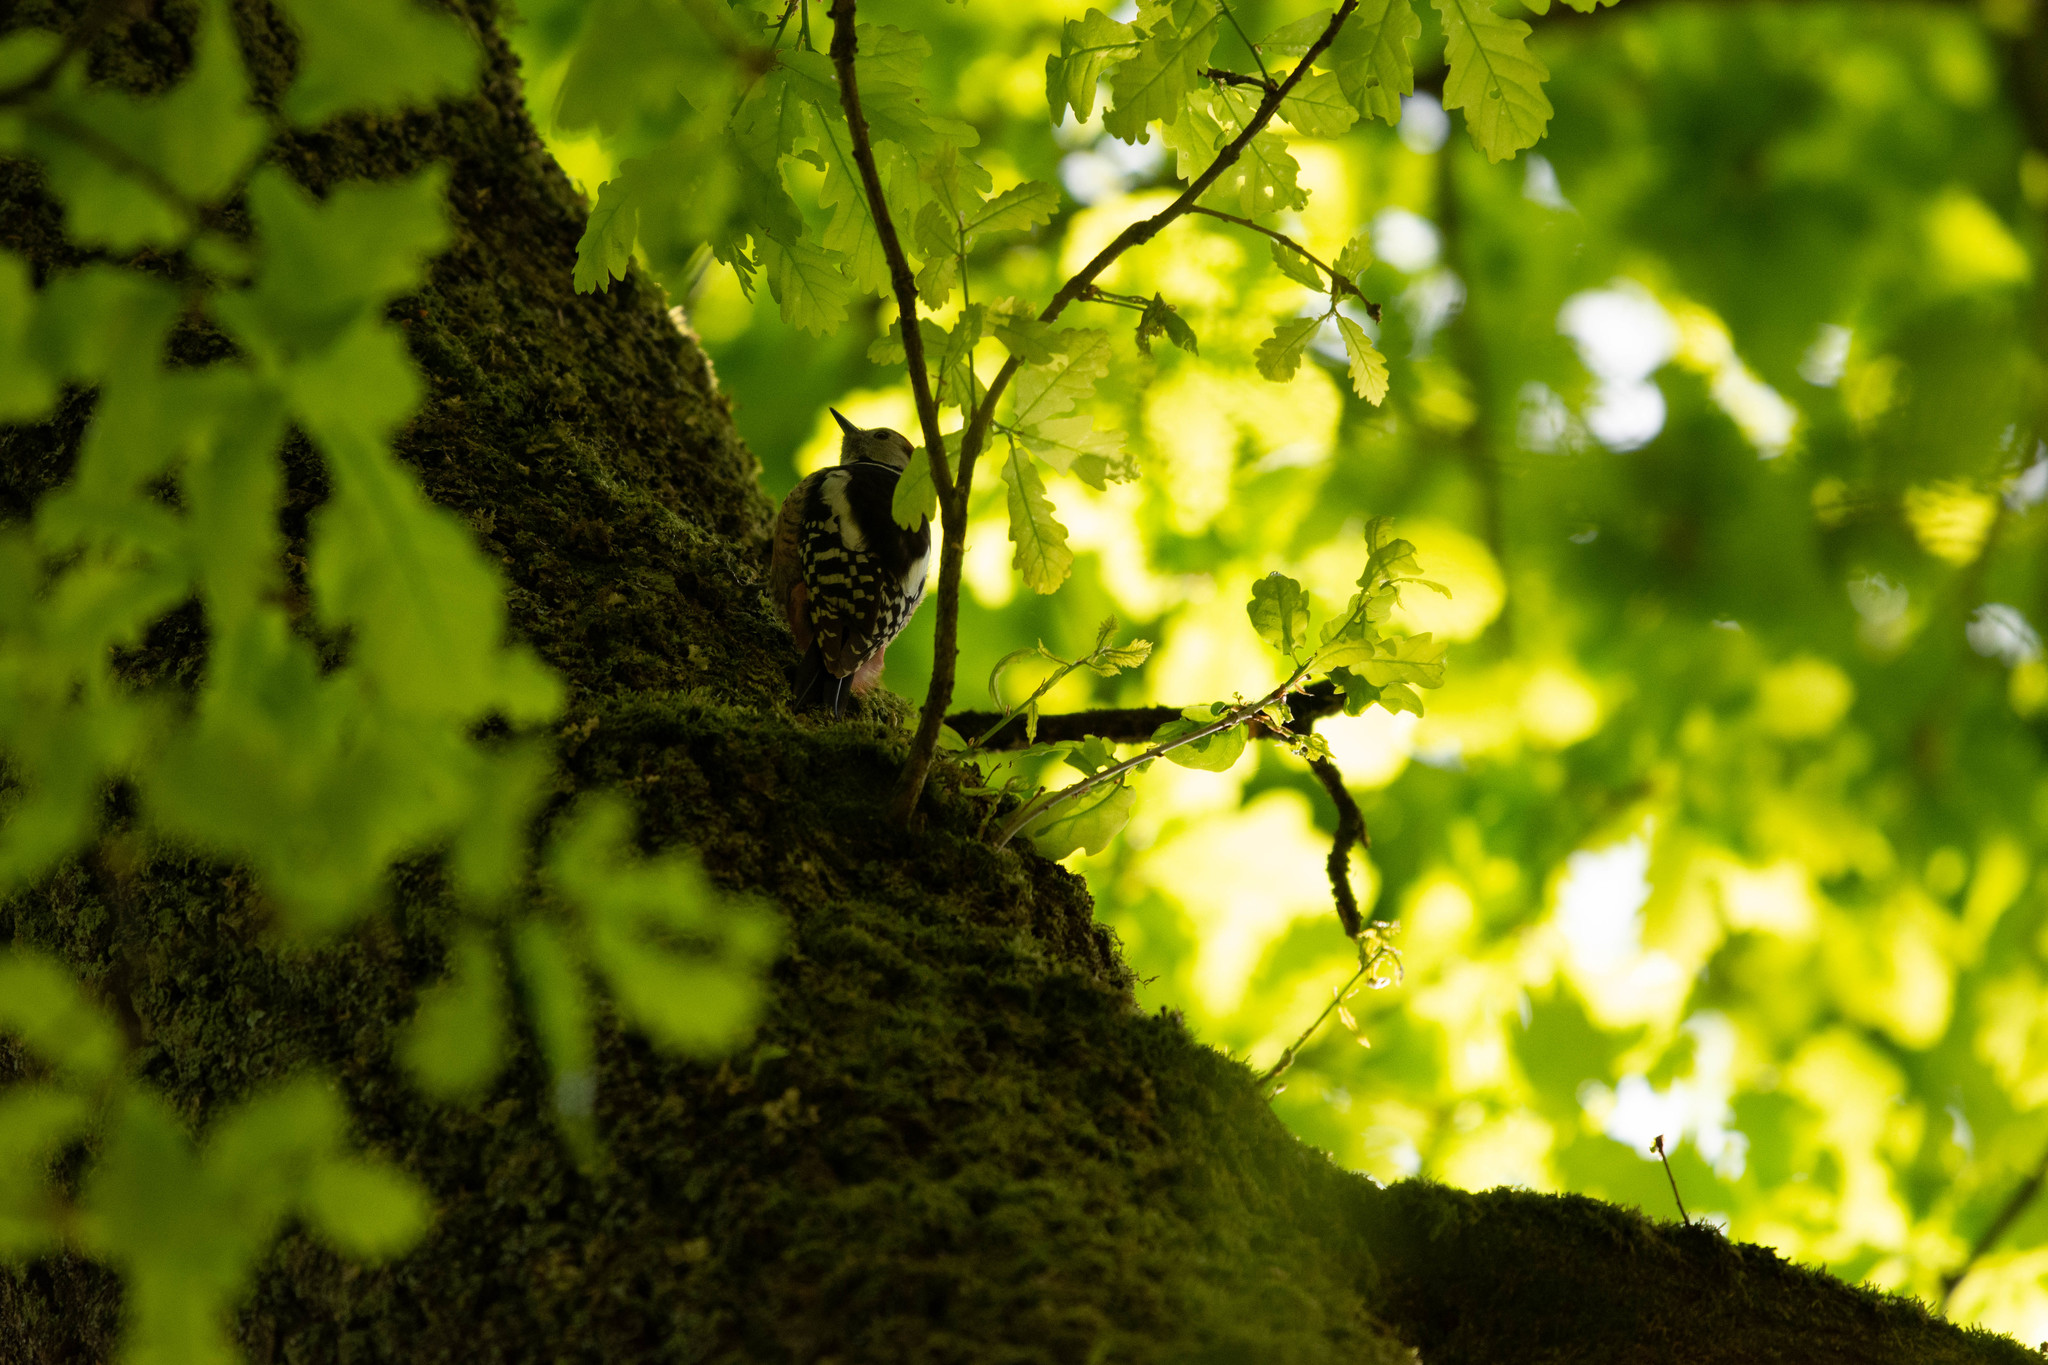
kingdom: Animalia
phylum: Chordata
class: Aves
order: Piciformes
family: Picidae
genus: Dendrocoptes
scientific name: Dendrocoptes medius
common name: Middle spotted woodpecker
